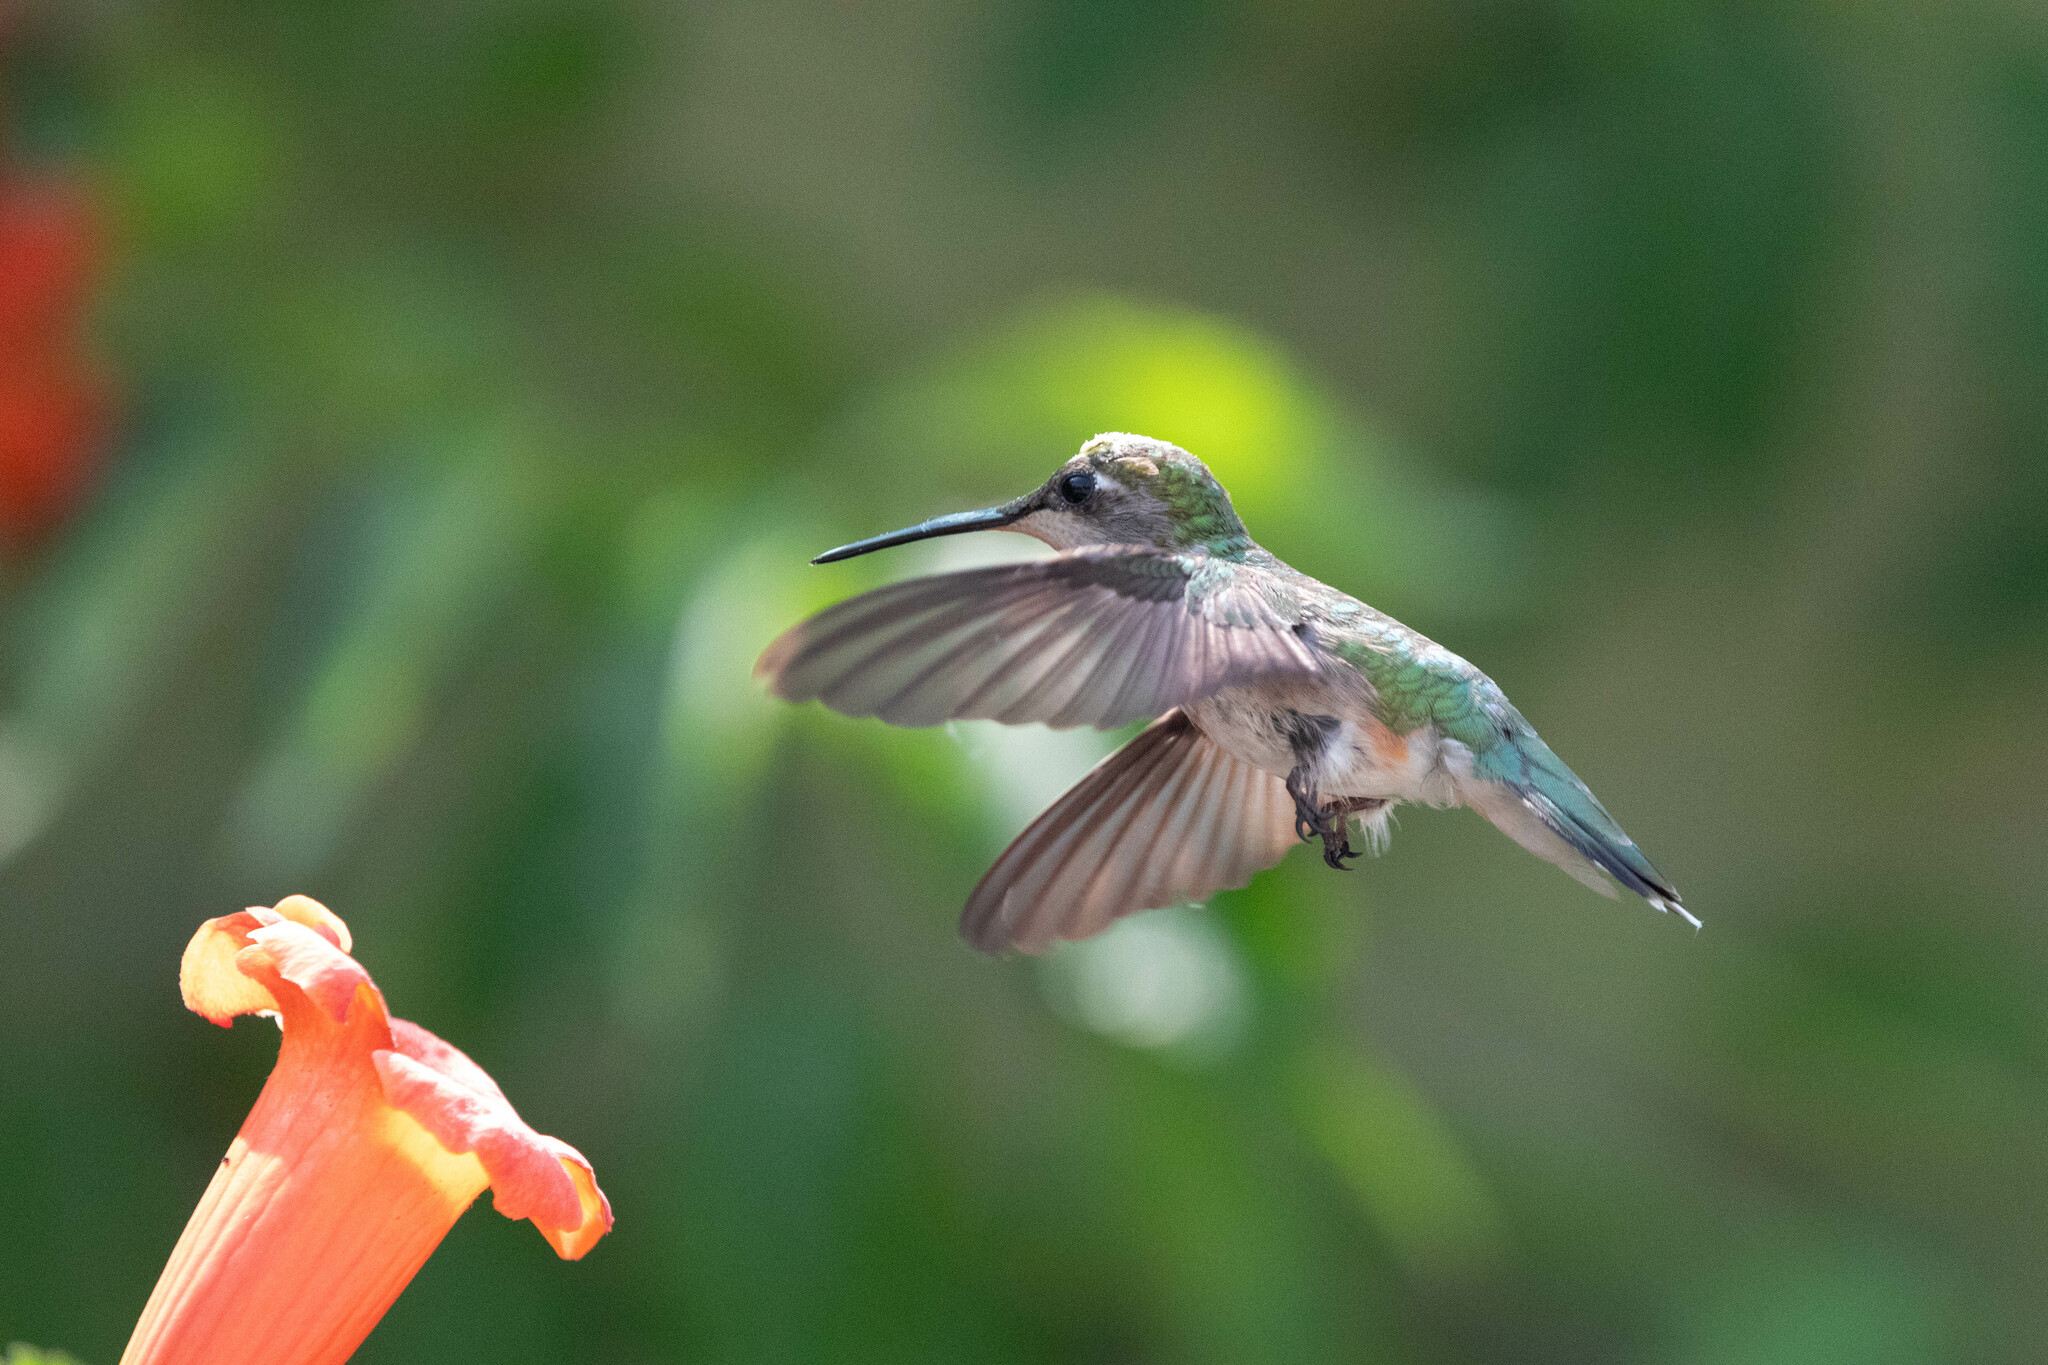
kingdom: Animalia
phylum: Chordata
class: Aves
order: Apodiformes
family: Trochilidae
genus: Archilochus
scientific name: Archilochus colubris
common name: Ruby-throated hummingbird
